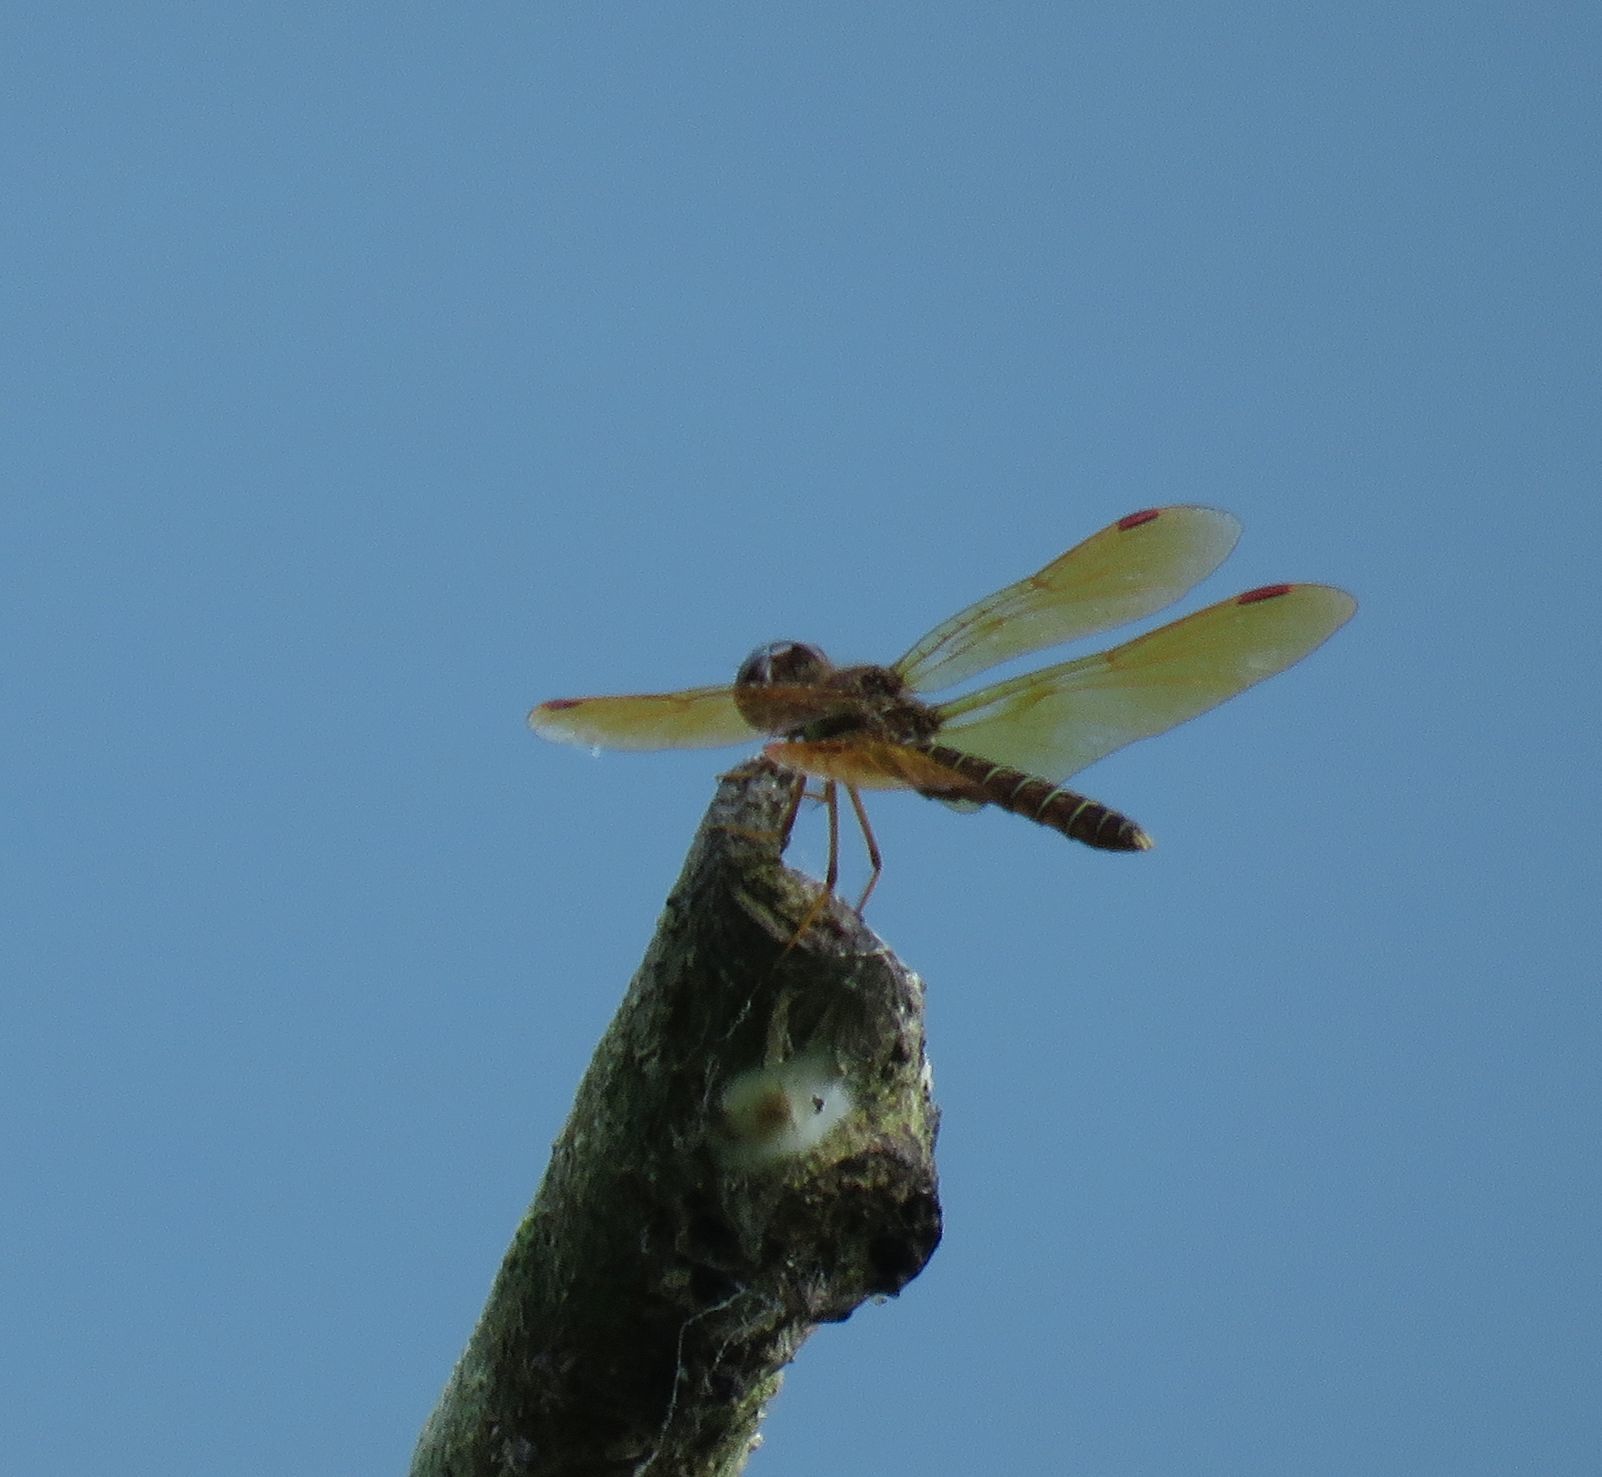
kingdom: Animalia
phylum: Arthropoda
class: Insecta
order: Odonata
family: Libellulidae
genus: Perithemis
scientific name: Perithemis tenera
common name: Eastern amberwing
